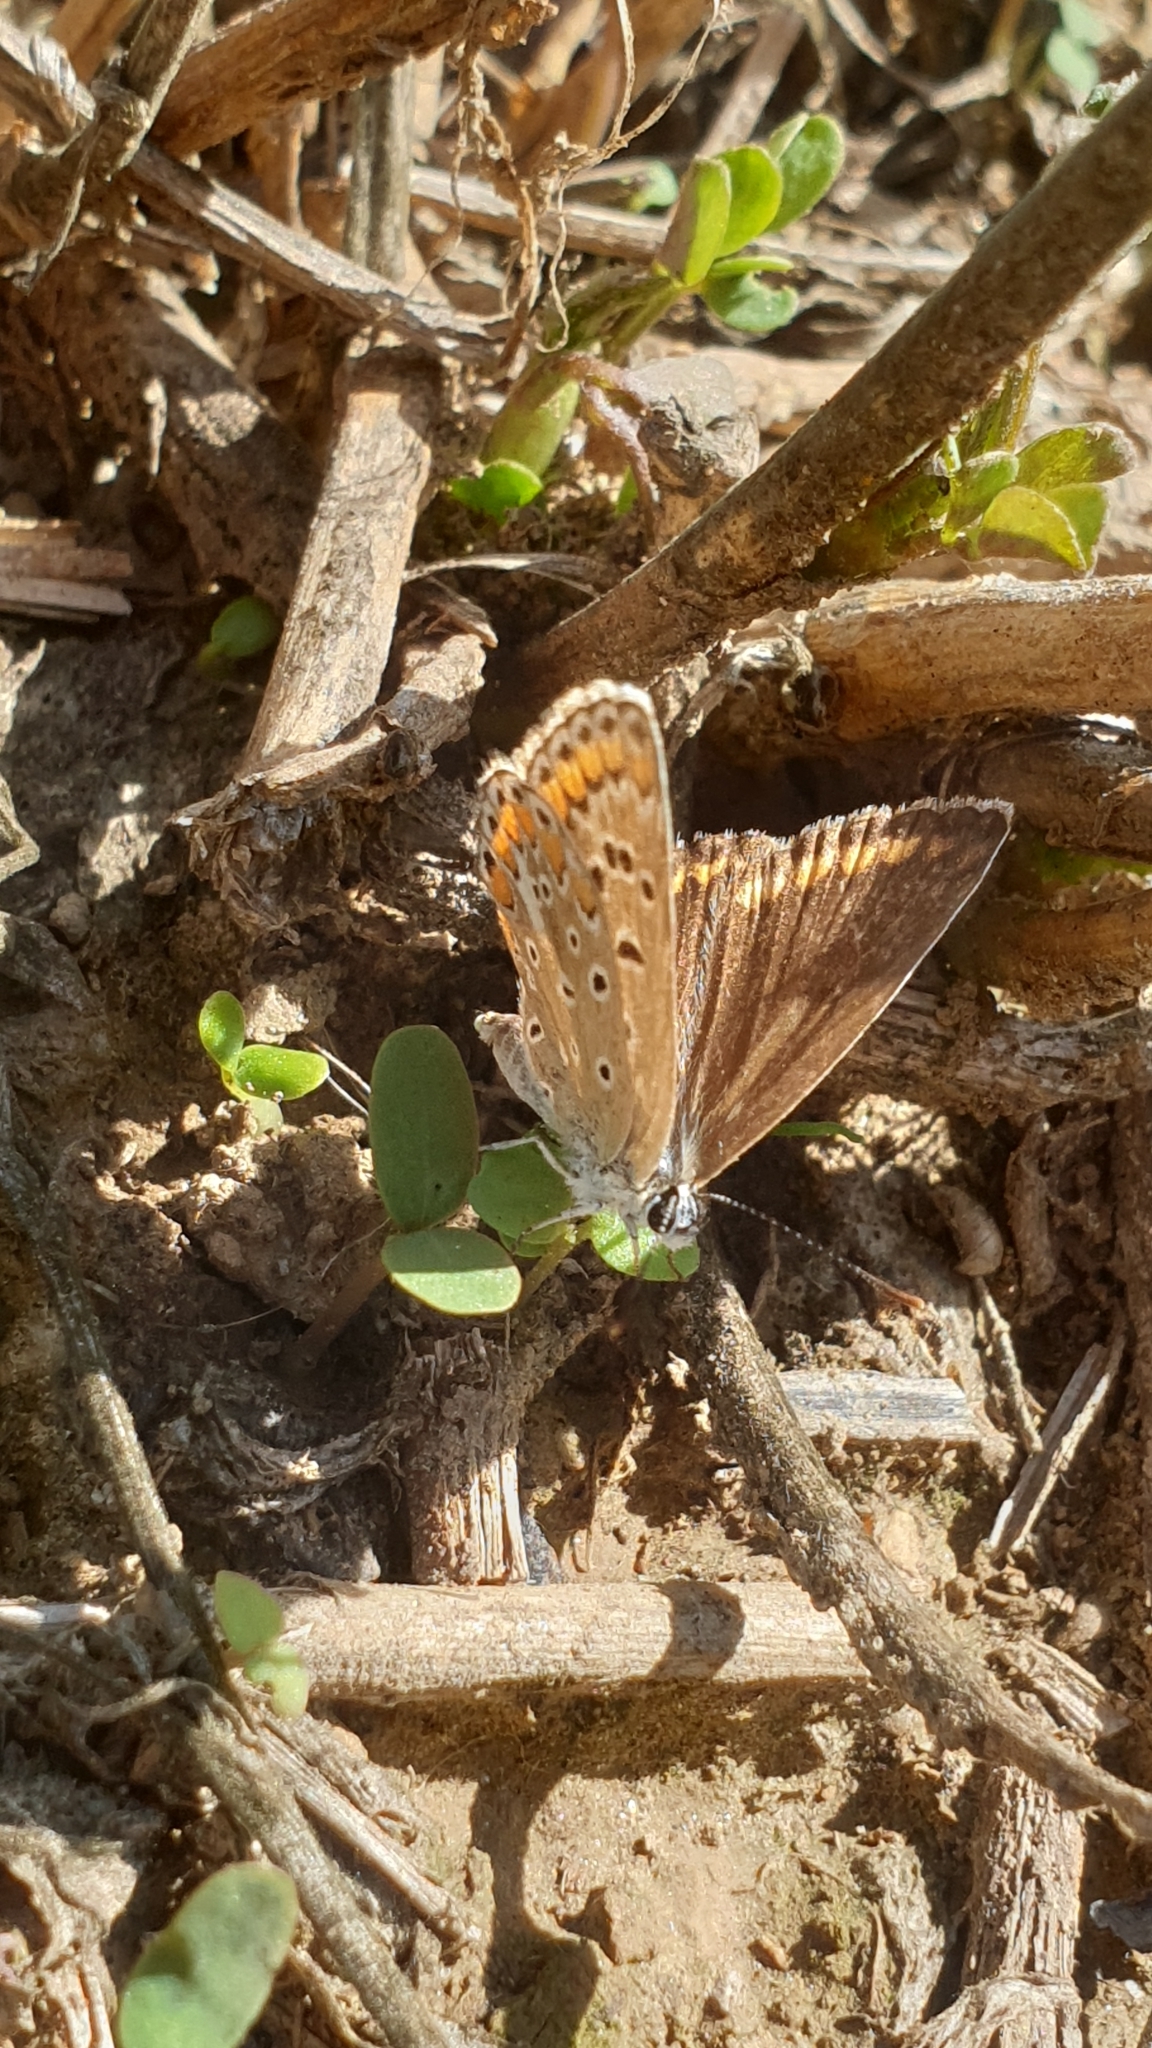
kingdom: Animalia
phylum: Arthropoda
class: Insecta
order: Lepidoptera
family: Lycaenidae
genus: Polyommatus
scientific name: Polyommatus icarus
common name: Common blue
